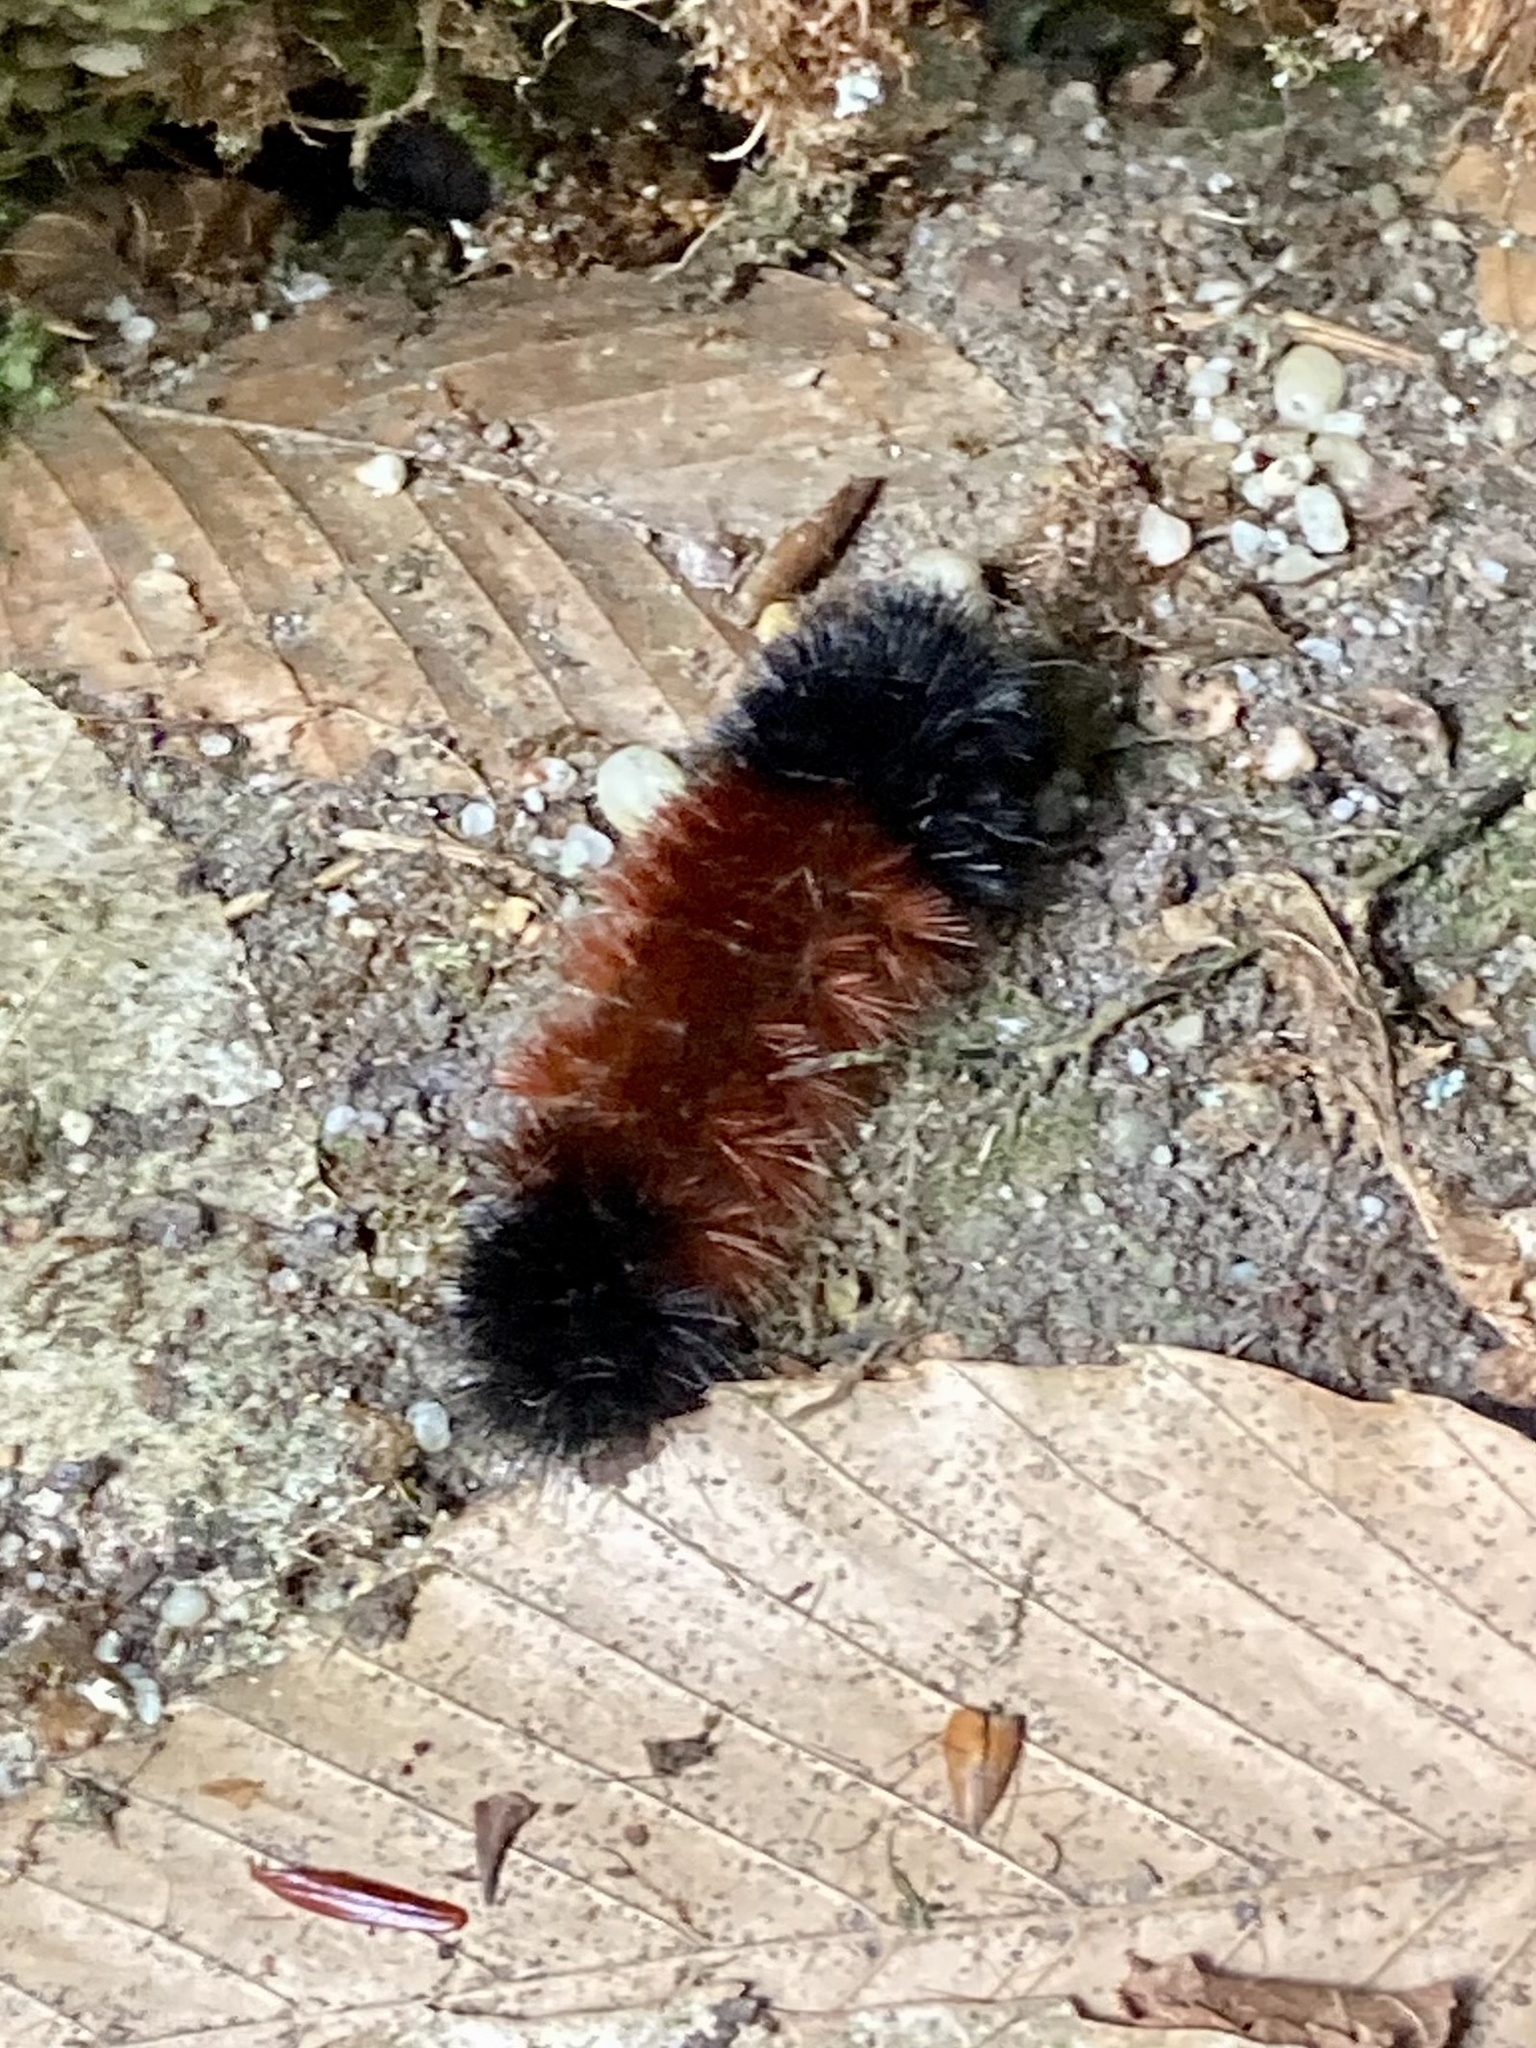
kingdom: Animalia
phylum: Arthropoda
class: Insecta
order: Lepidoptera
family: Erebidae
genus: Pyrrharctia
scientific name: Pyrrharctia isabella
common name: Isabella tiger moth
